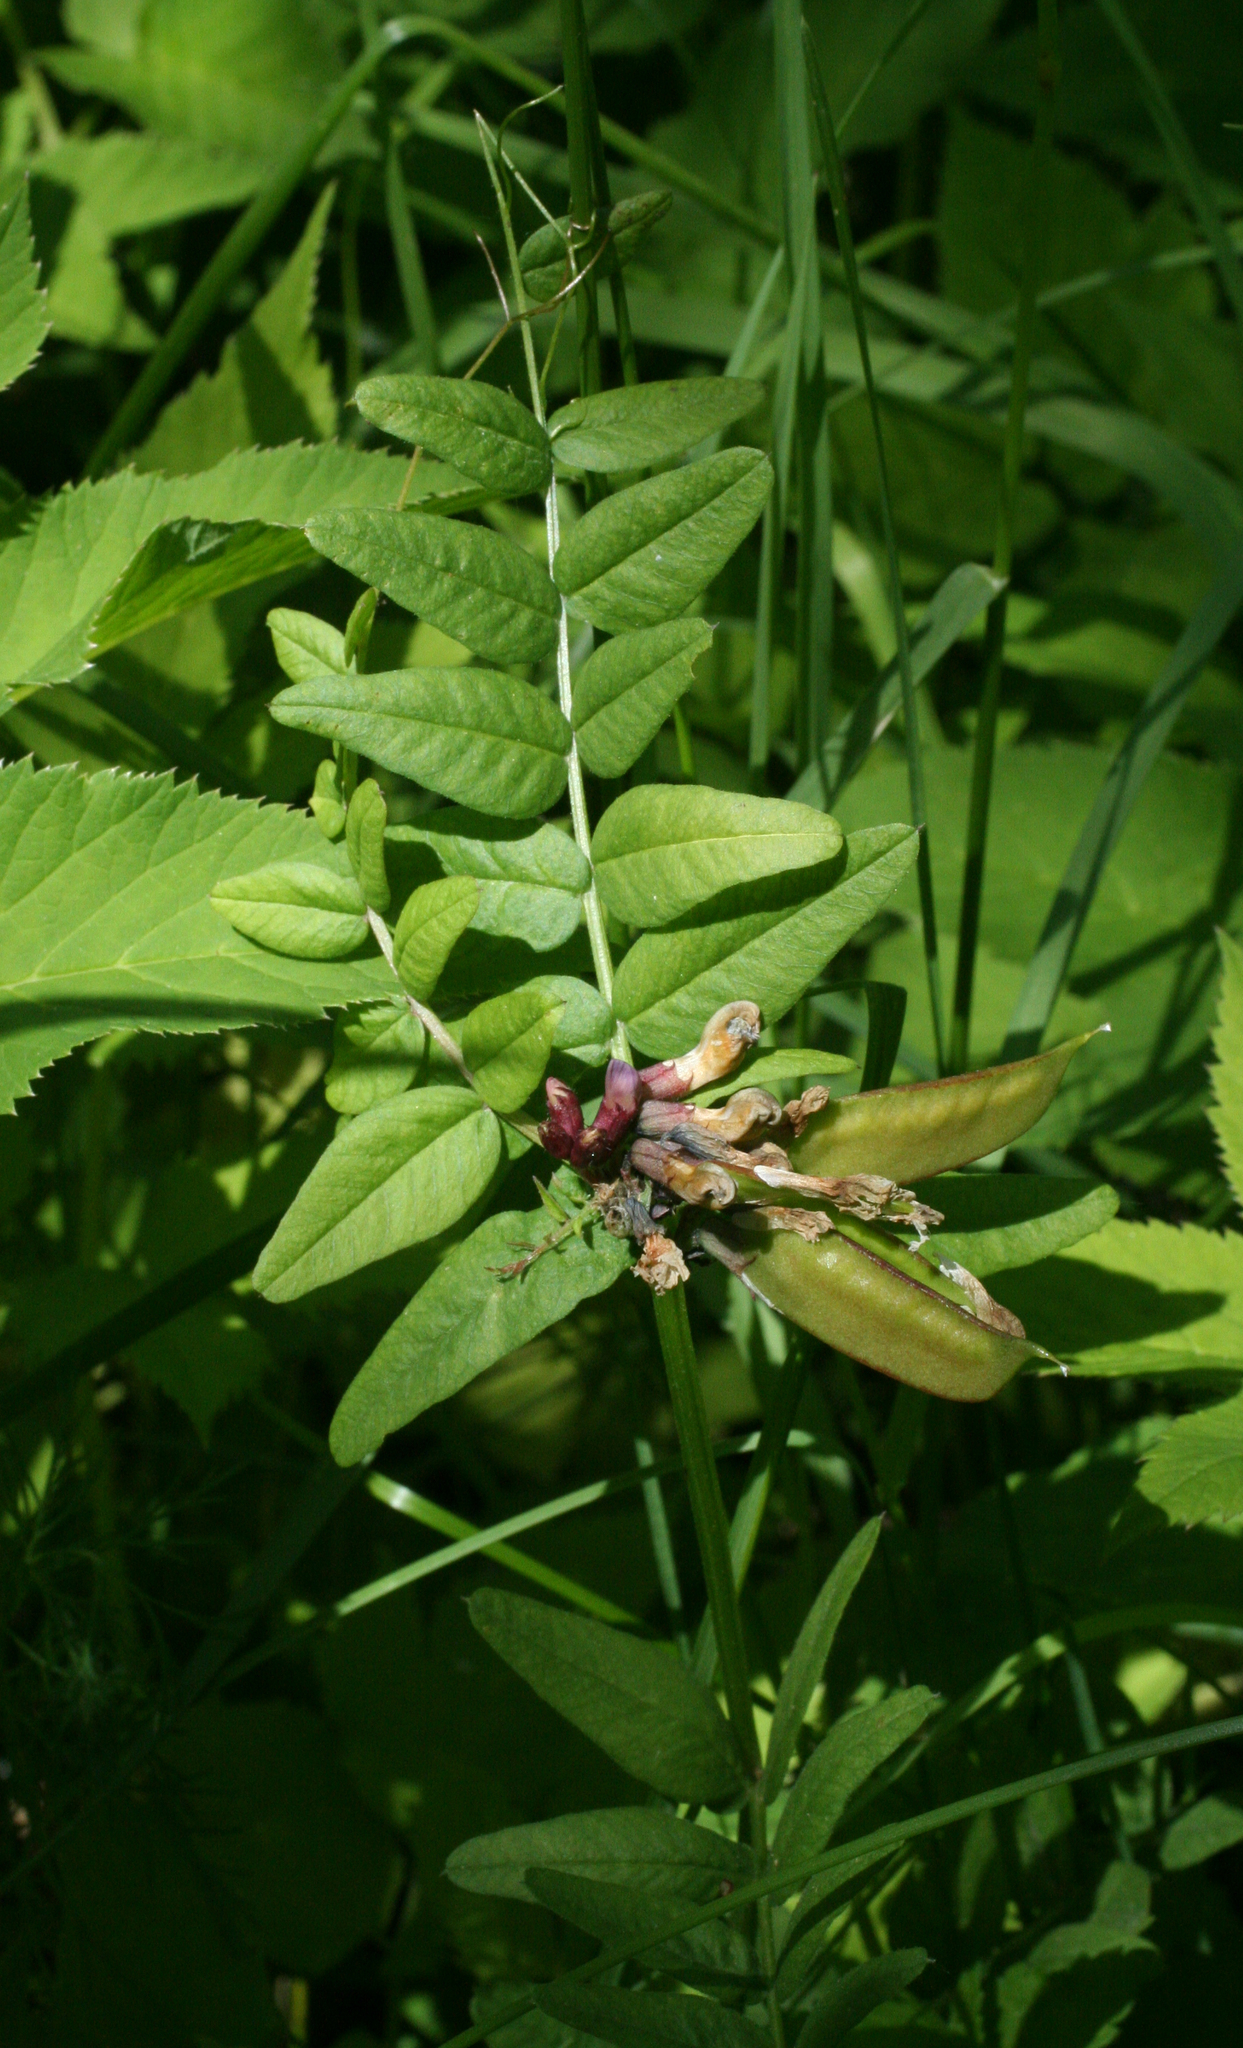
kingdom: Plantae
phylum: Tracheophyta
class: Magnoliopsida
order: Fabales
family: Fabaceae
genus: Vicia
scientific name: Vicia sepium
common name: Bush vetch
